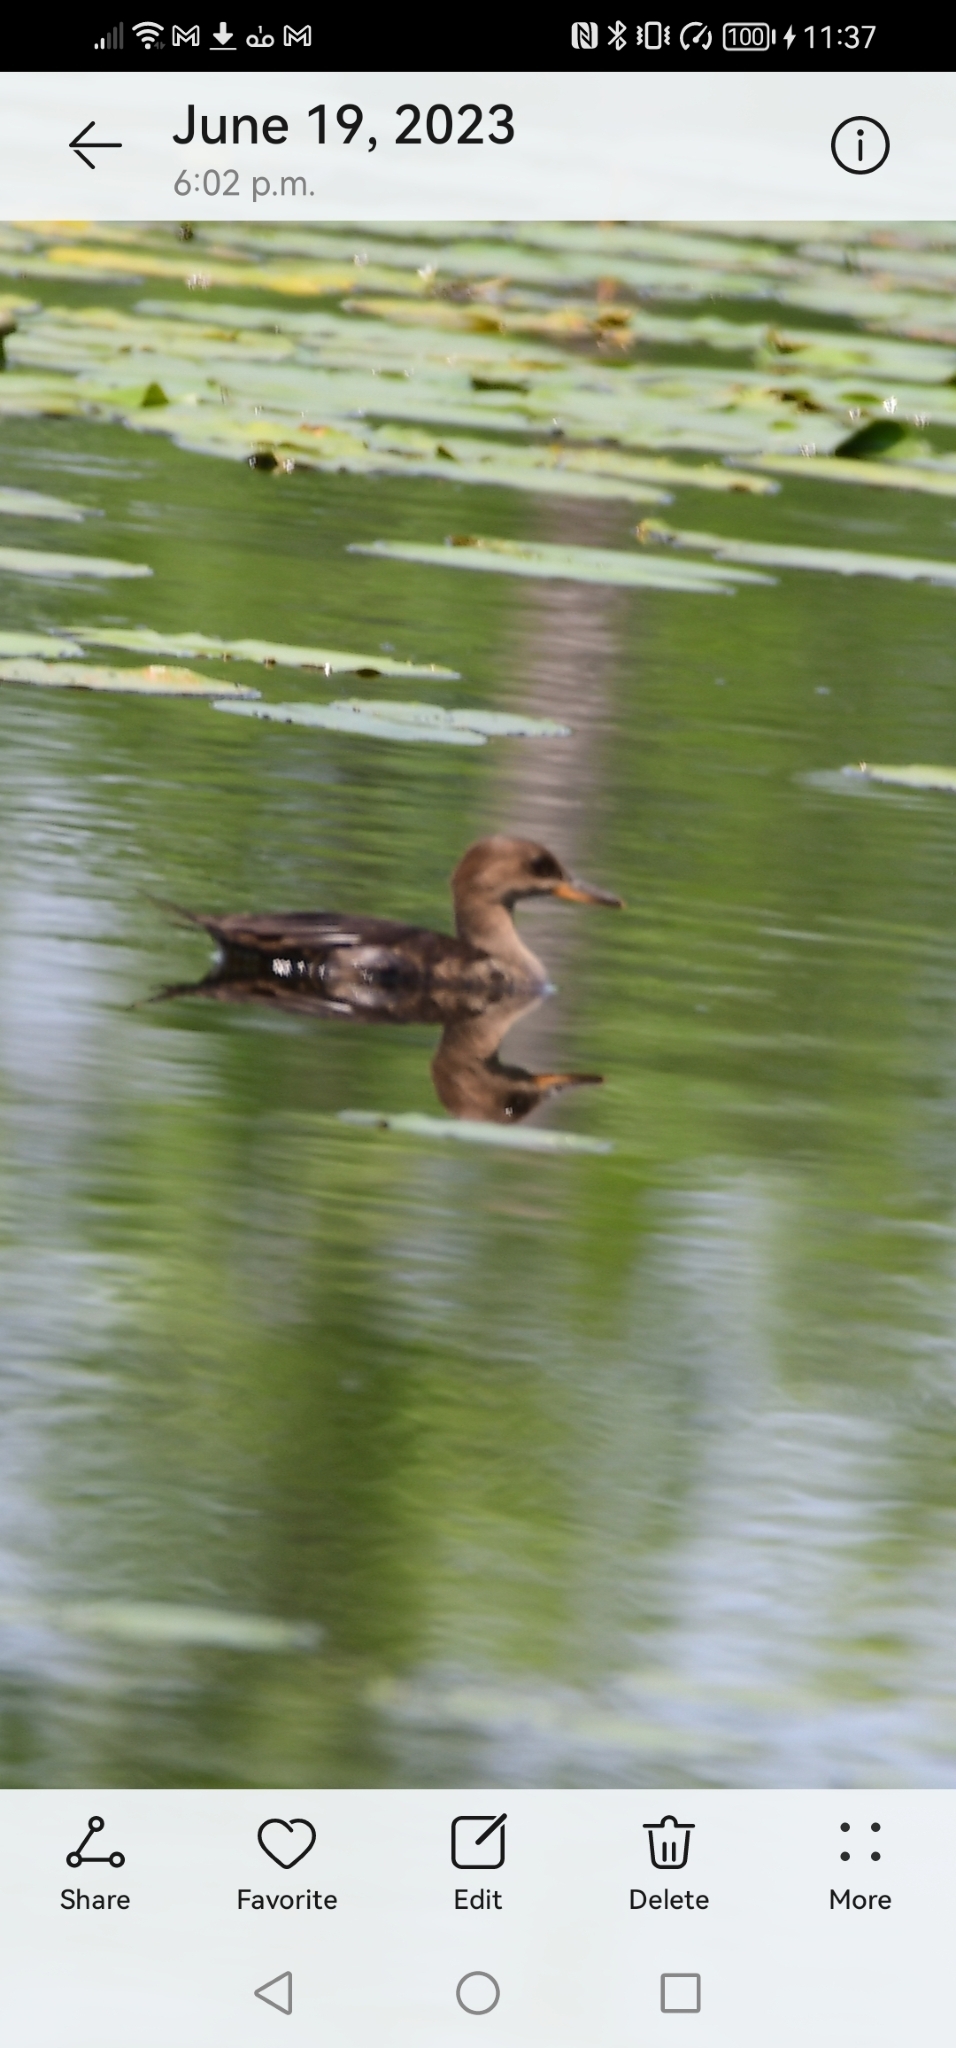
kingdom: Animalia
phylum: Chordata
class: Aves
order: Anseriformes
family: Anatidae
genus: Lophodytes
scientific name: Lophodytes cucullatus
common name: Hooded merganser
